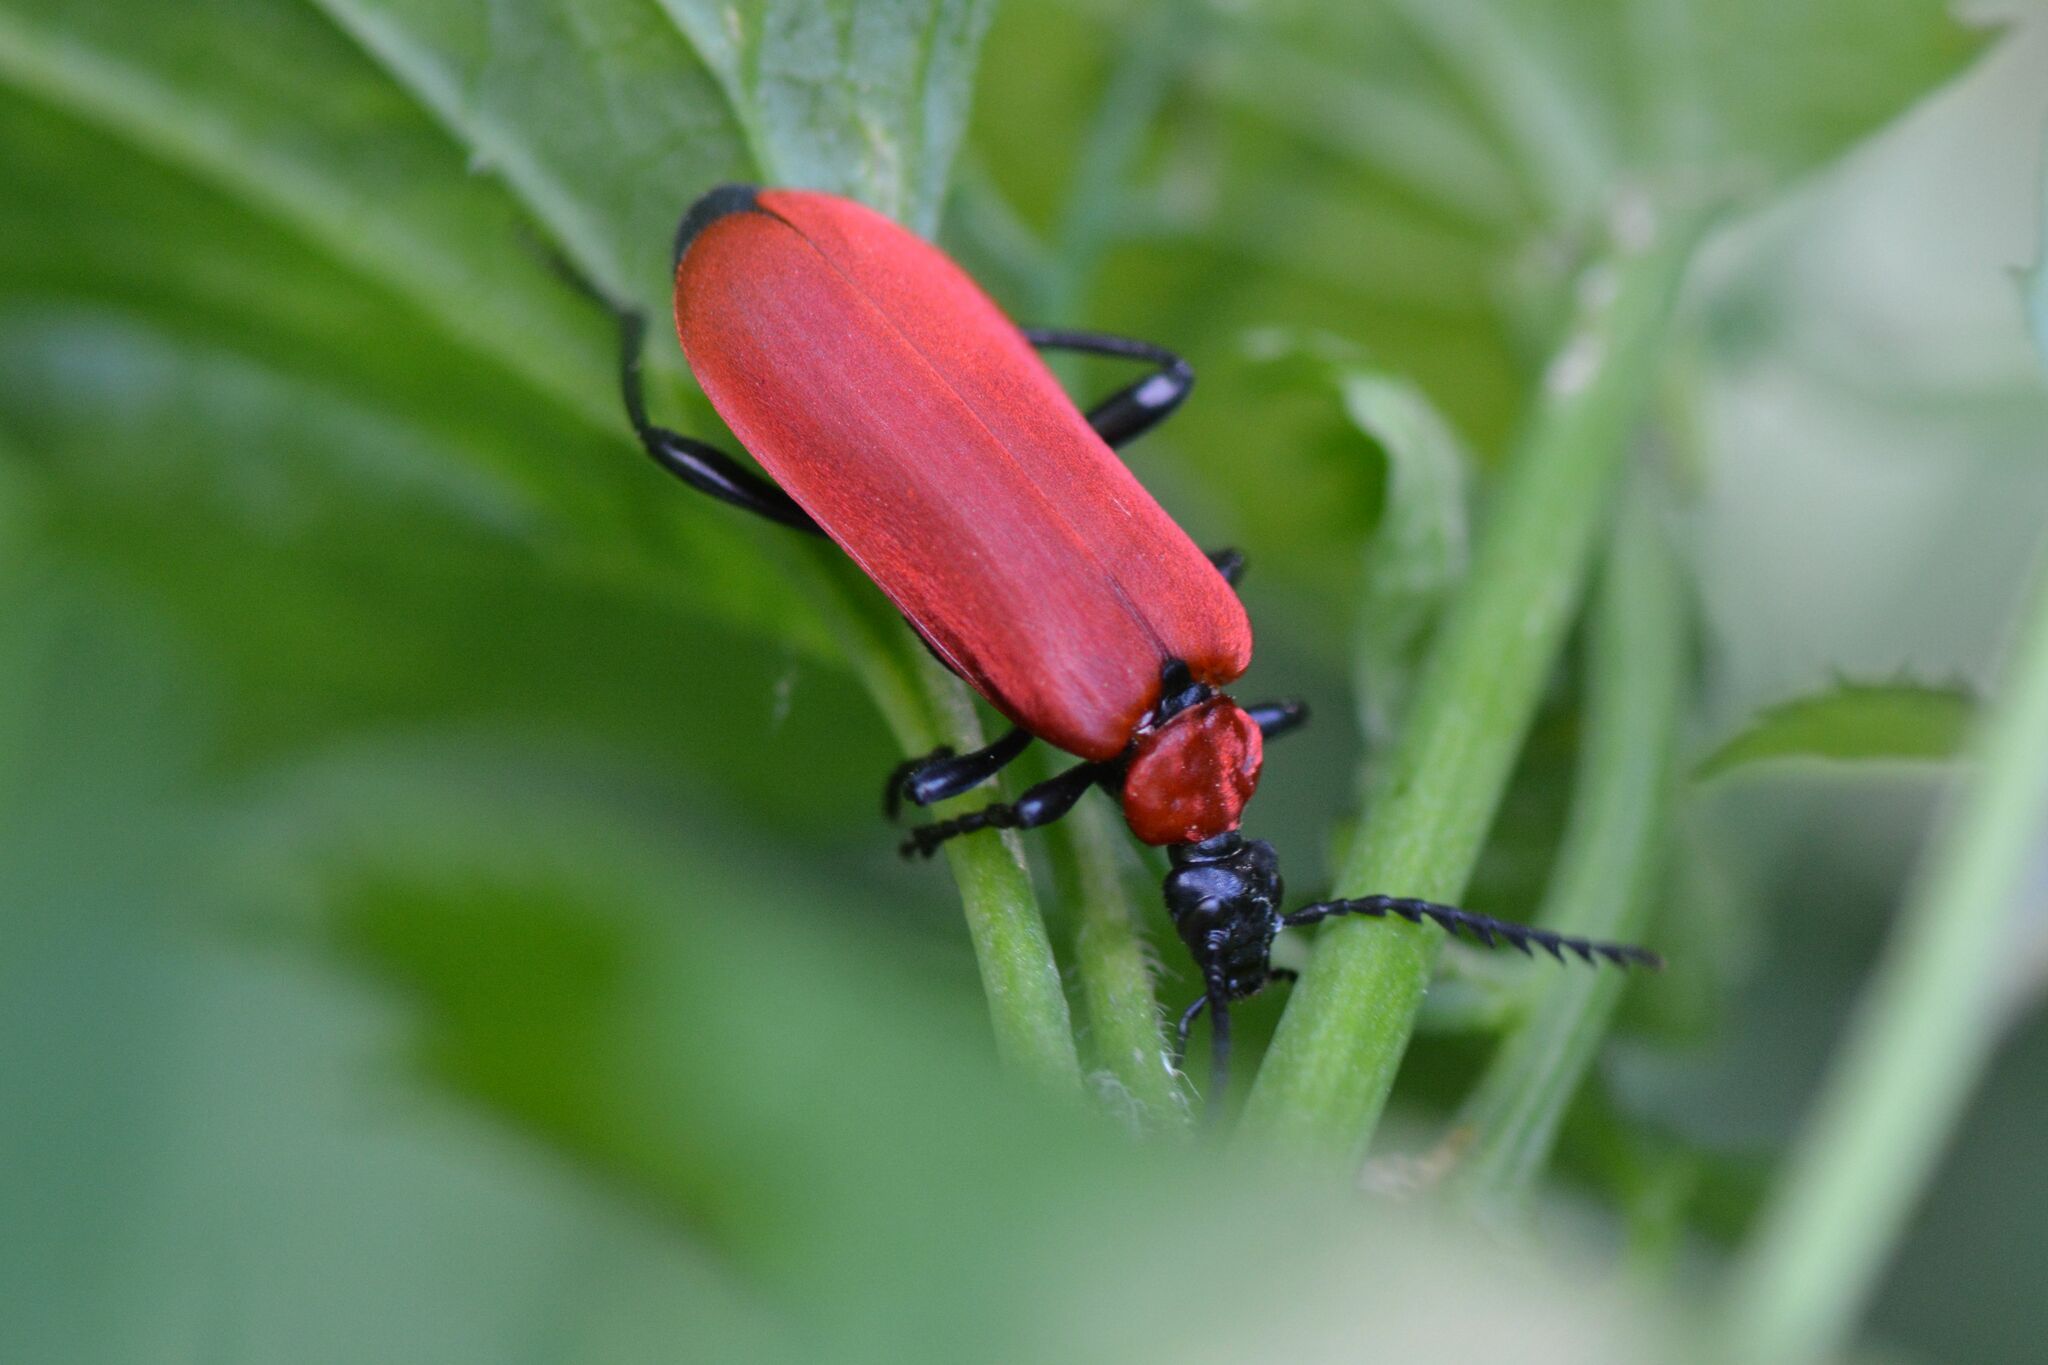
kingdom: Animalia
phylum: Arthropoda
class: Insecta
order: Coleoptera
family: Pyrochroidae
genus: Pyrochroa
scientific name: Pyrochroa coccinea
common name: Black-headed cardinal beetle
